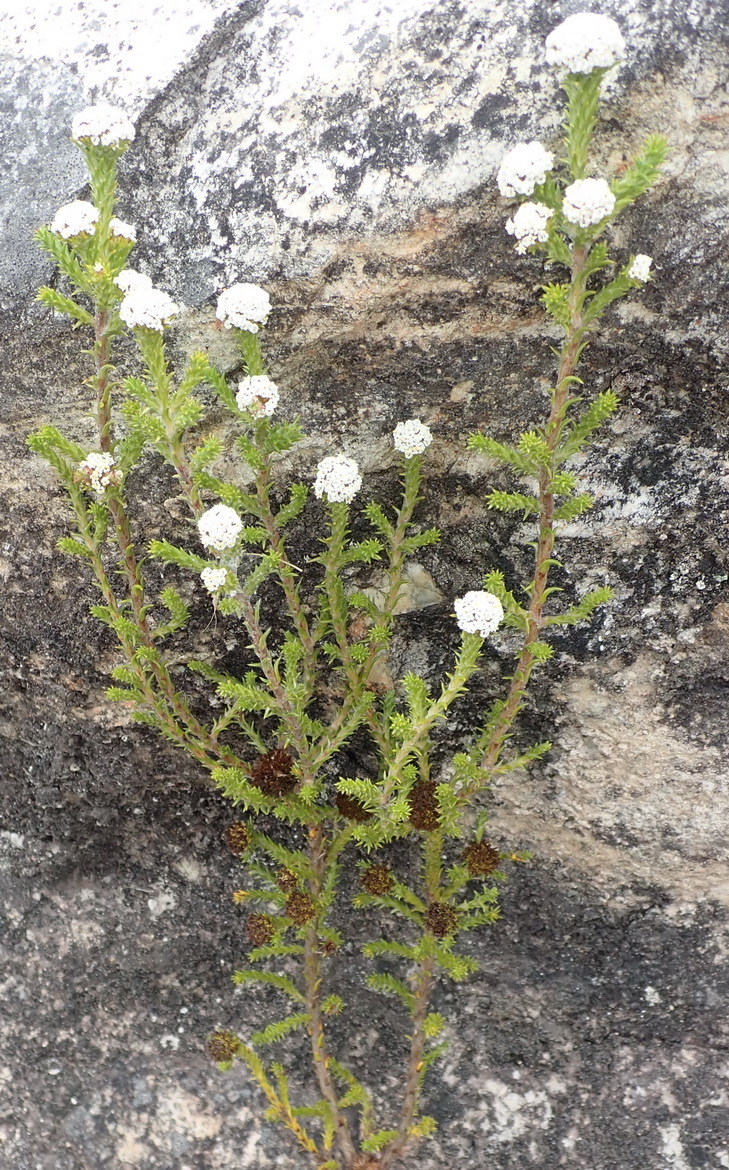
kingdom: Plantae
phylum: Tracheophyta
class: Magnoliopsida
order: Asterales
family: Asteraceae
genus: Stoebe
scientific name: Stoebe aethiopica
